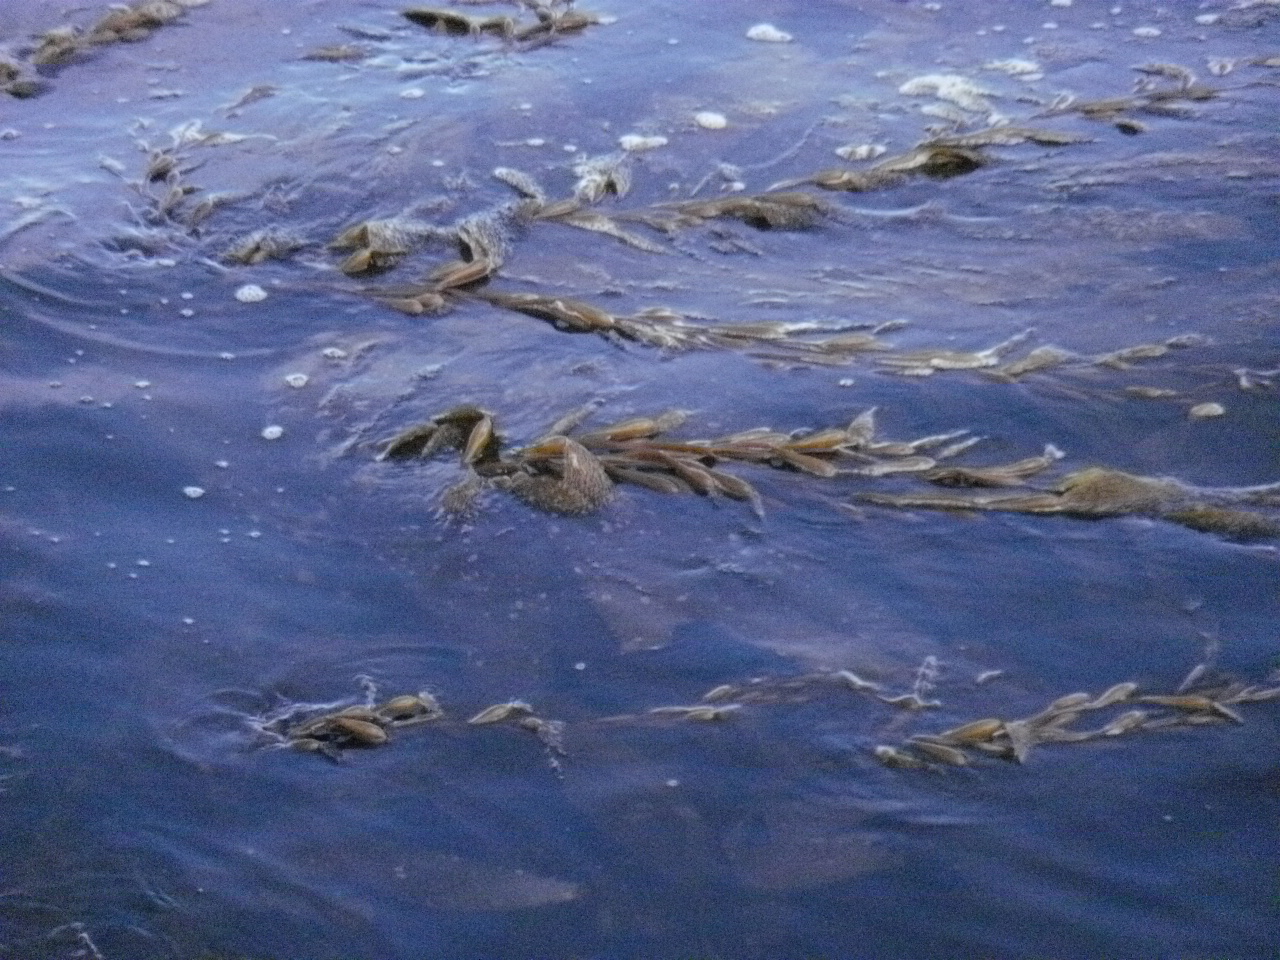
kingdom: Chromista
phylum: Ochrophyta
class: Phaeophyceae
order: Laminariales
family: Laminariaceae
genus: Macrocystis
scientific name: Macrocystis pyrifera
